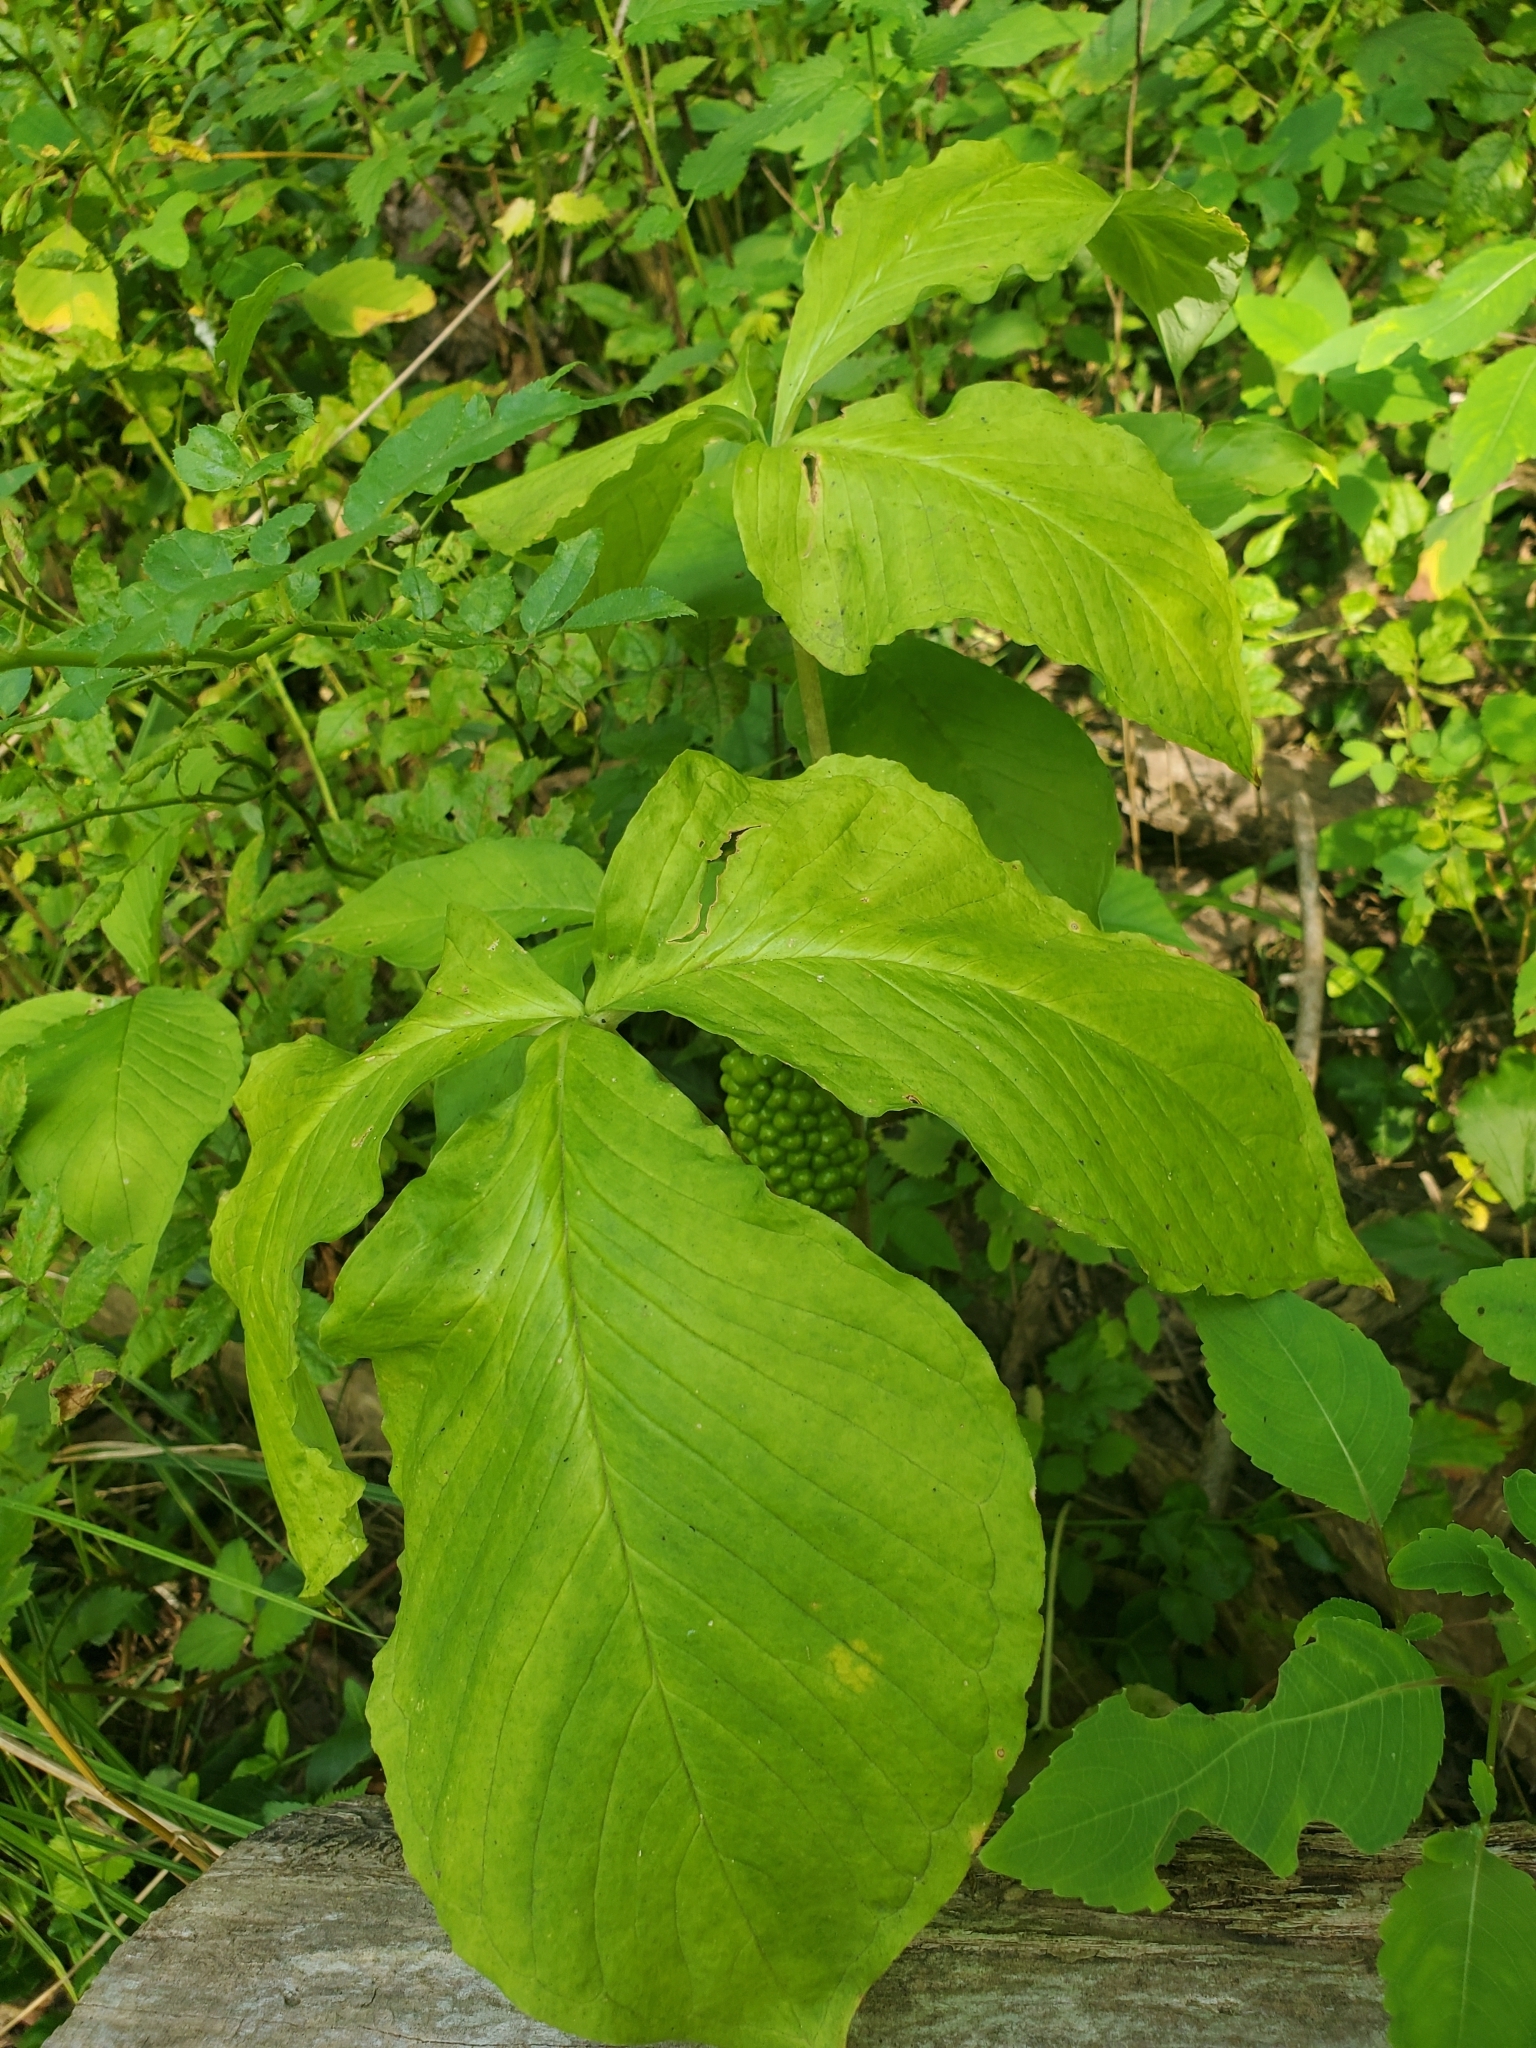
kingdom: Plantae
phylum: Tracheophyta
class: Liliopsida
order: Alismatales
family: Araceae
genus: Arisaema
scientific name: Arisaema triphyllum
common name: Jack-in-the-pulpit
